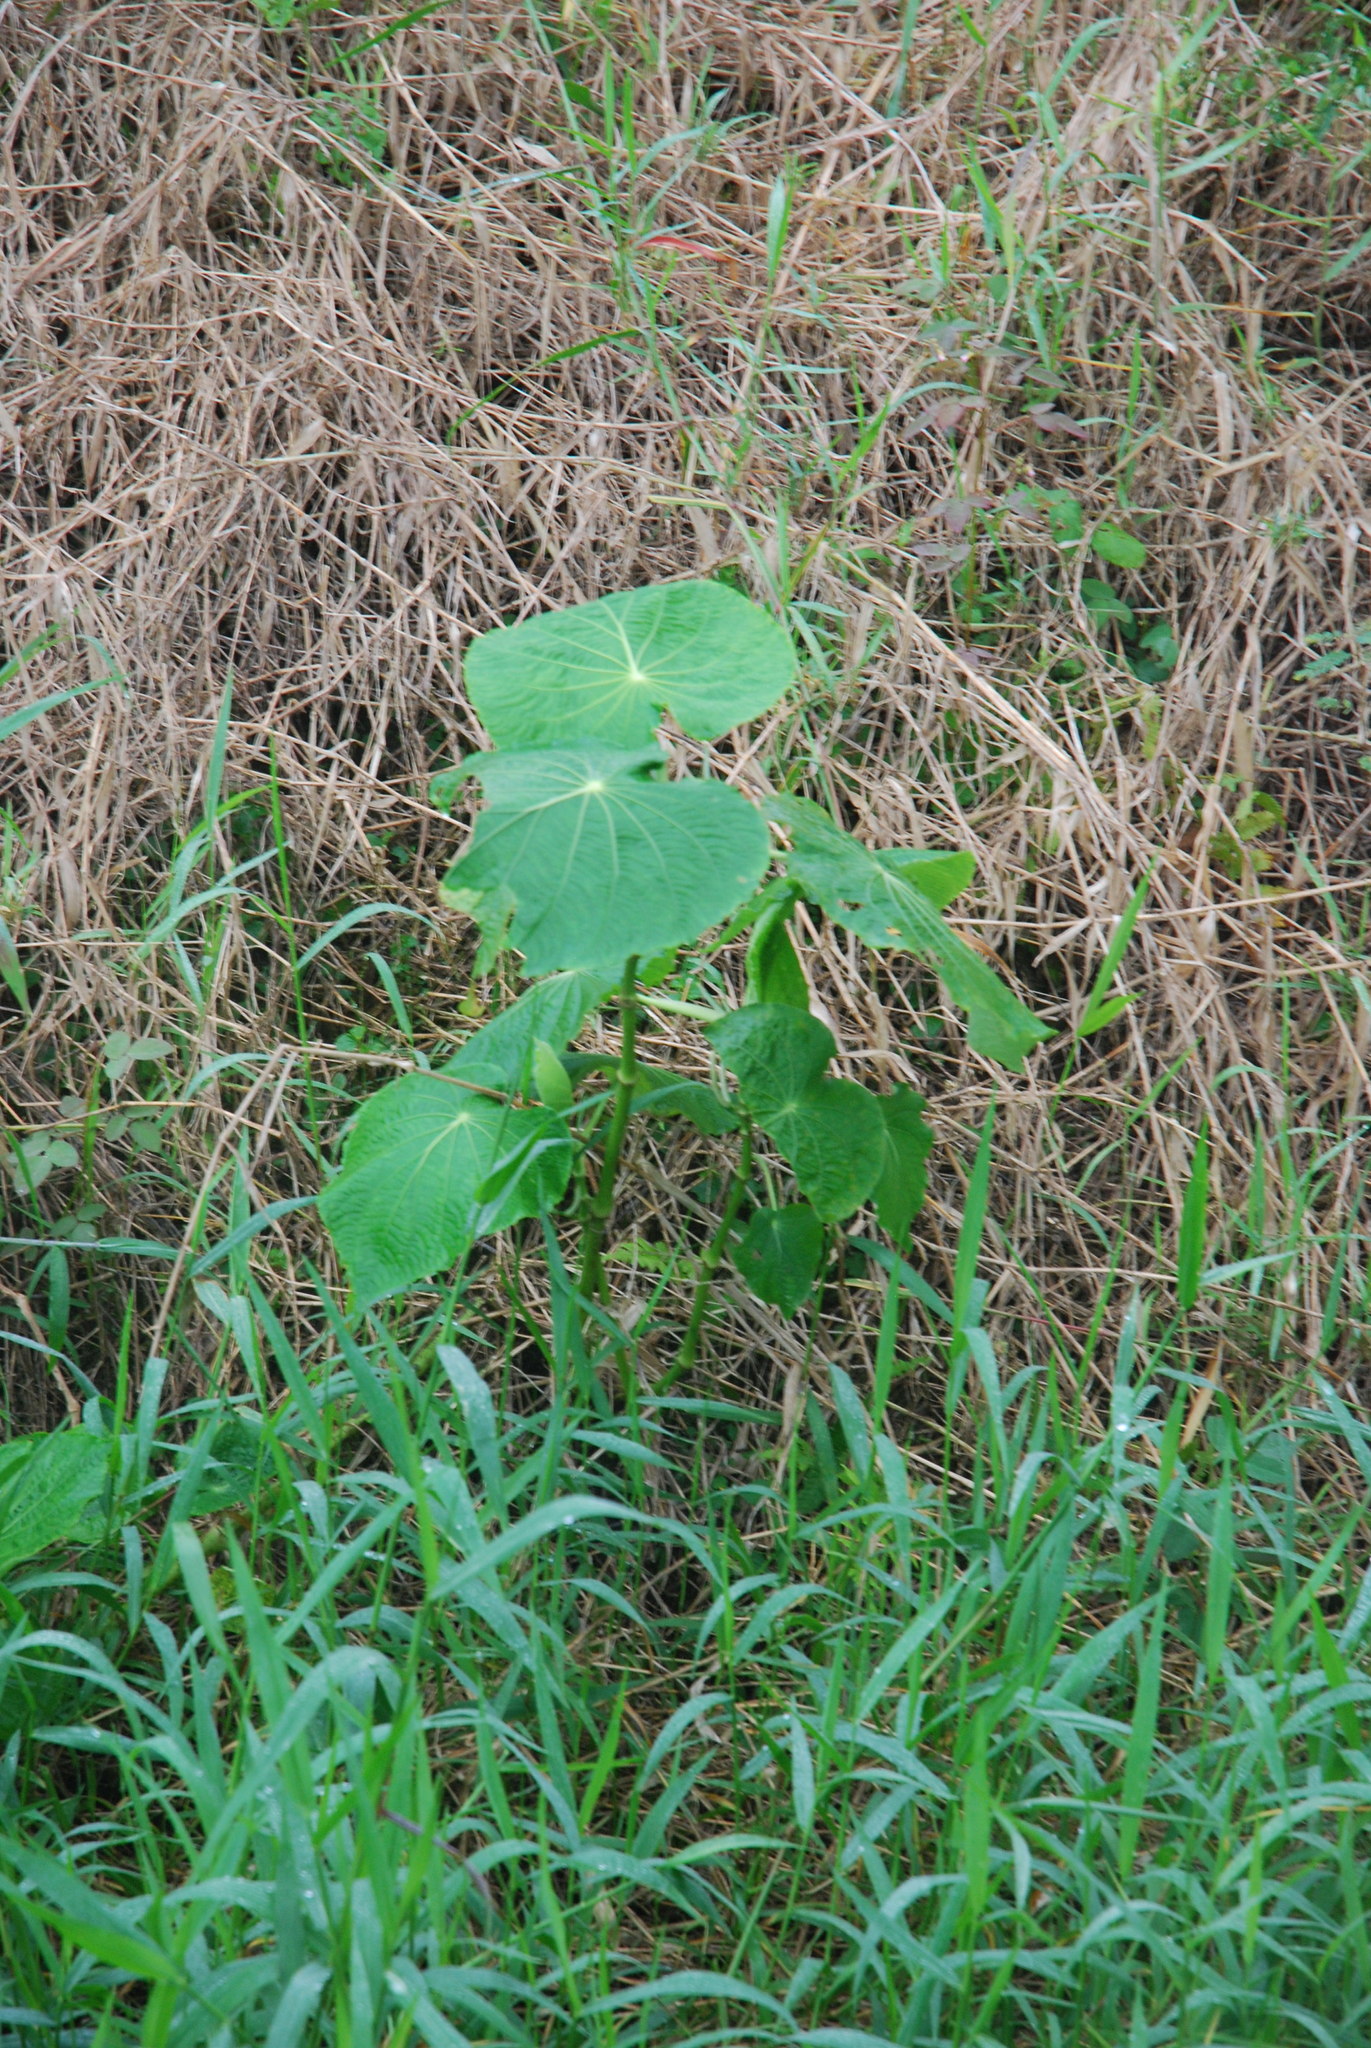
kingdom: Plantae
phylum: Tracheophyta
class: Magnoliopsida
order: Piperales
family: Piperaceae
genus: Piper
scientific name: Piper peltatum
